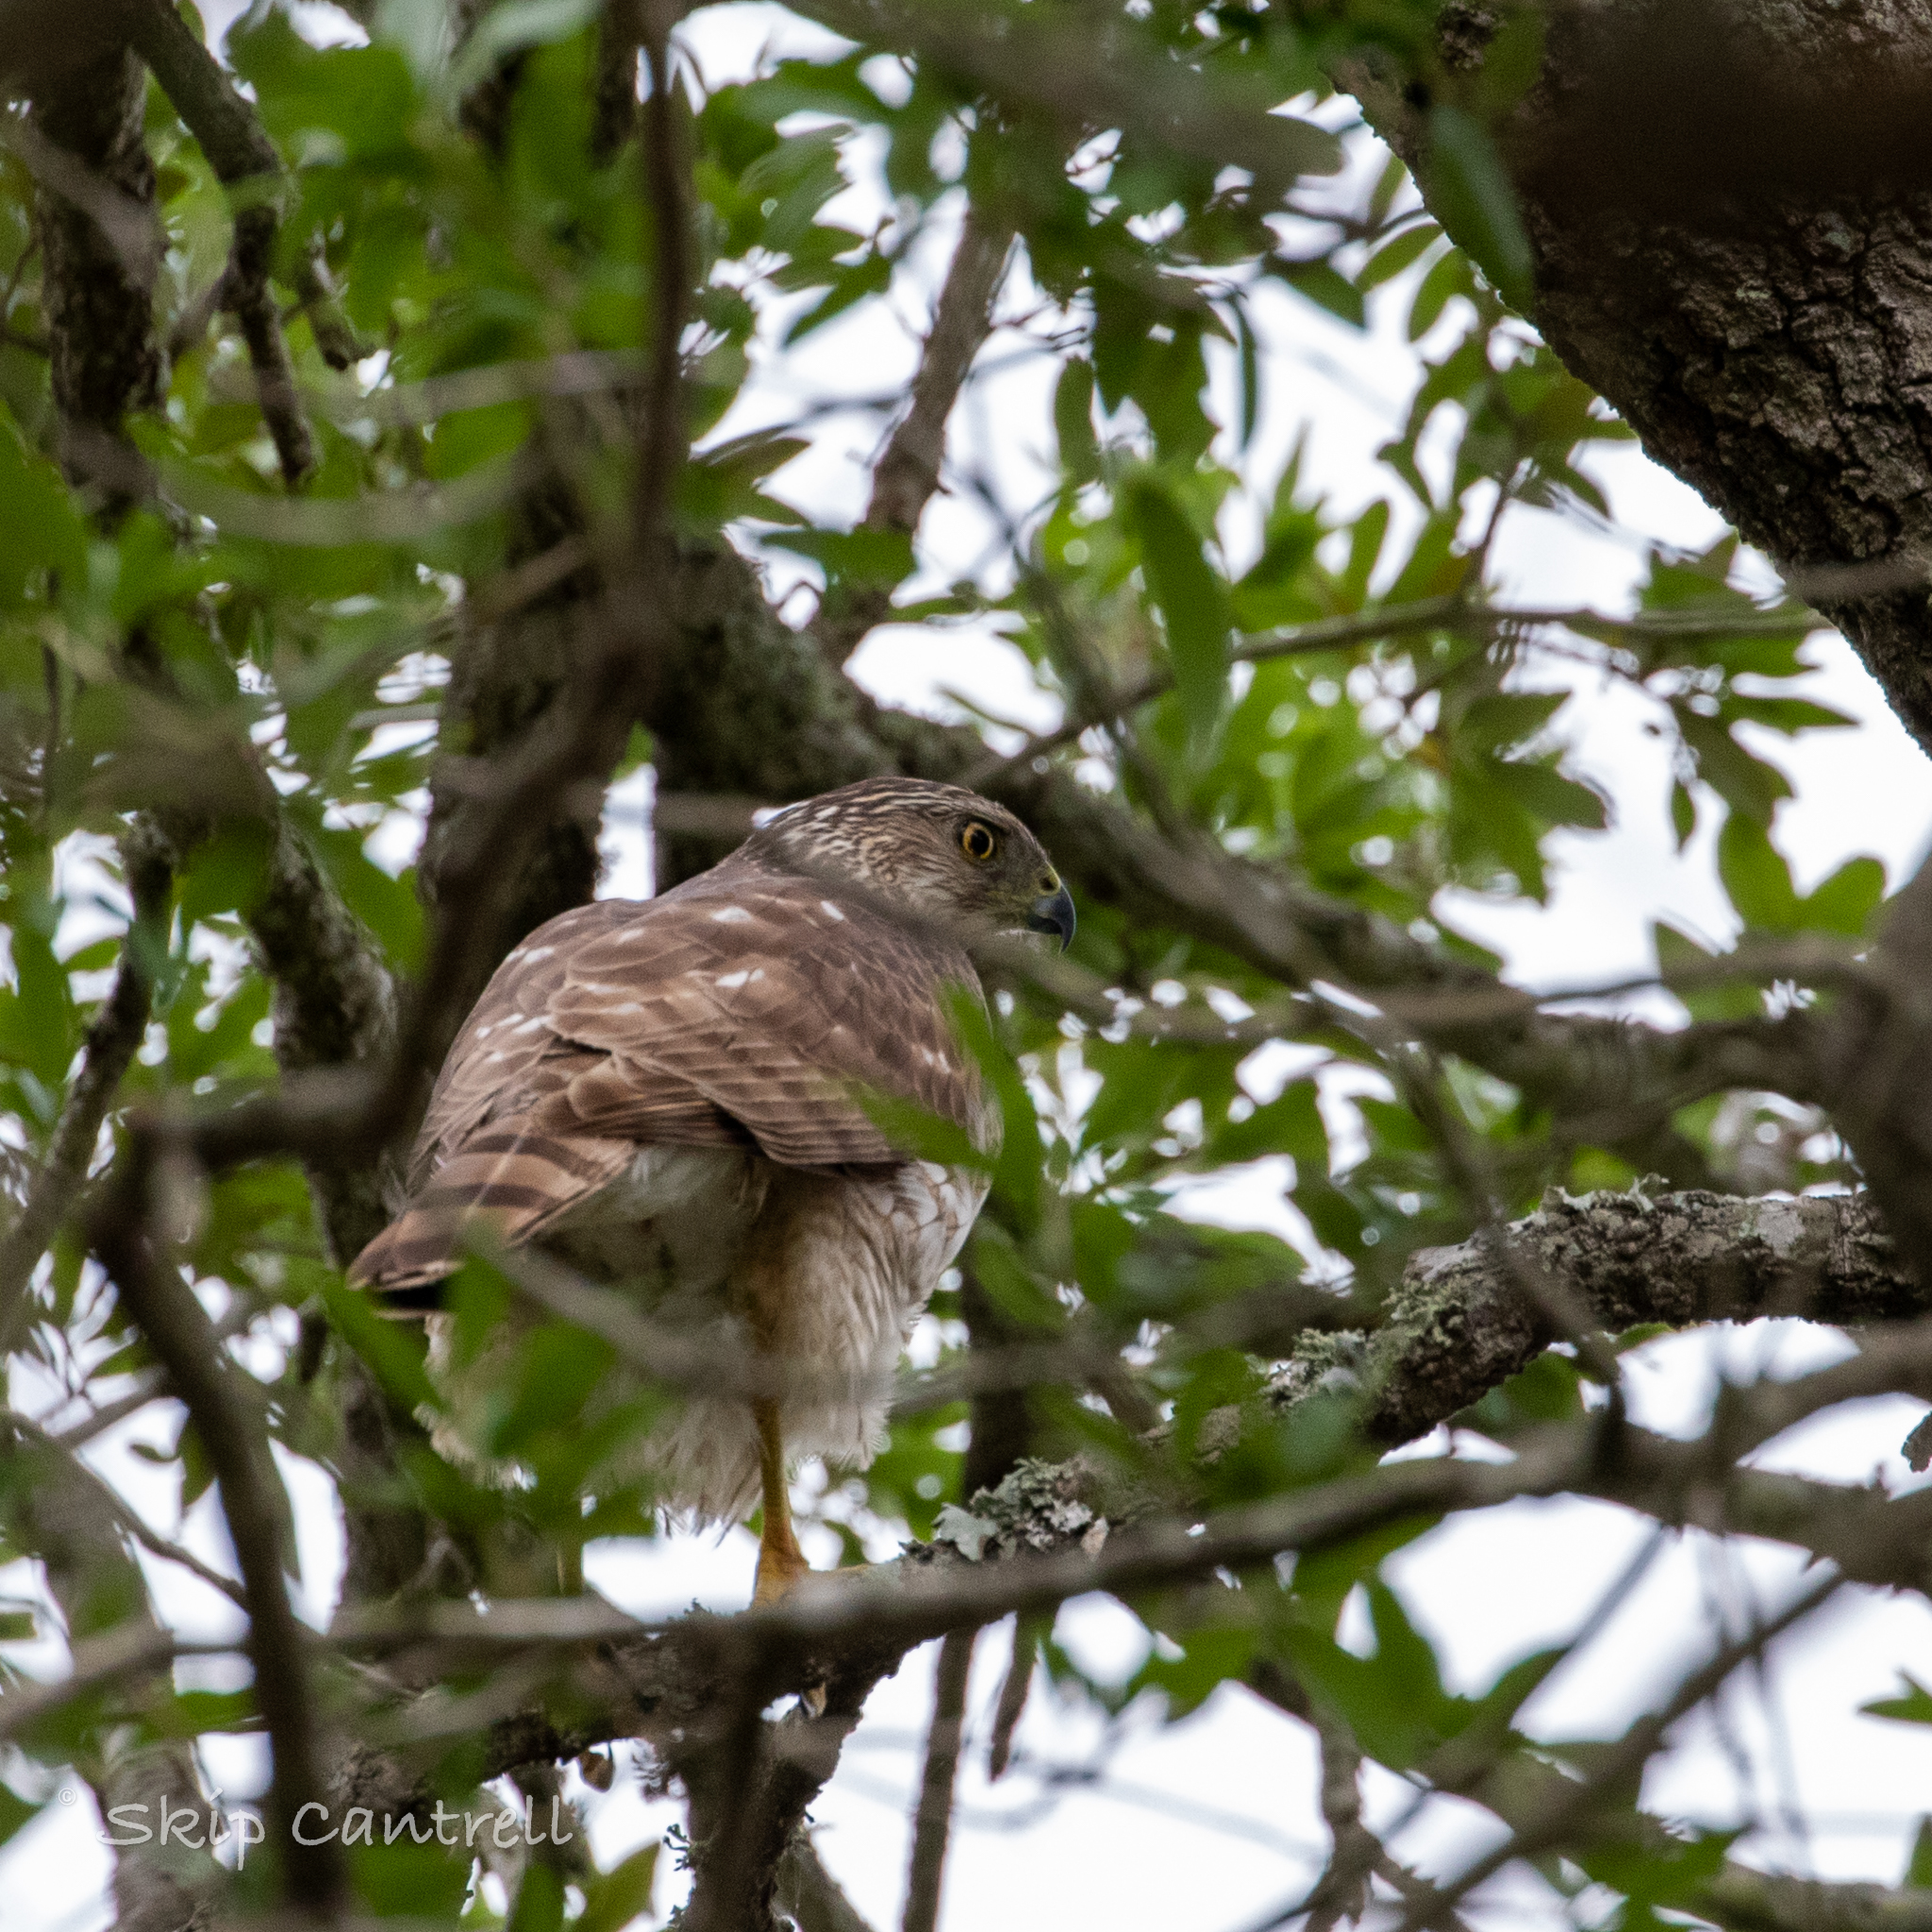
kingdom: Animalia
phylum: Chordata
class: Aves
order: Accipitriformes
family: Accipitridae
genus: Accipiter
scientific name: Accipiter cooperii
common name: Cooper's hawk
